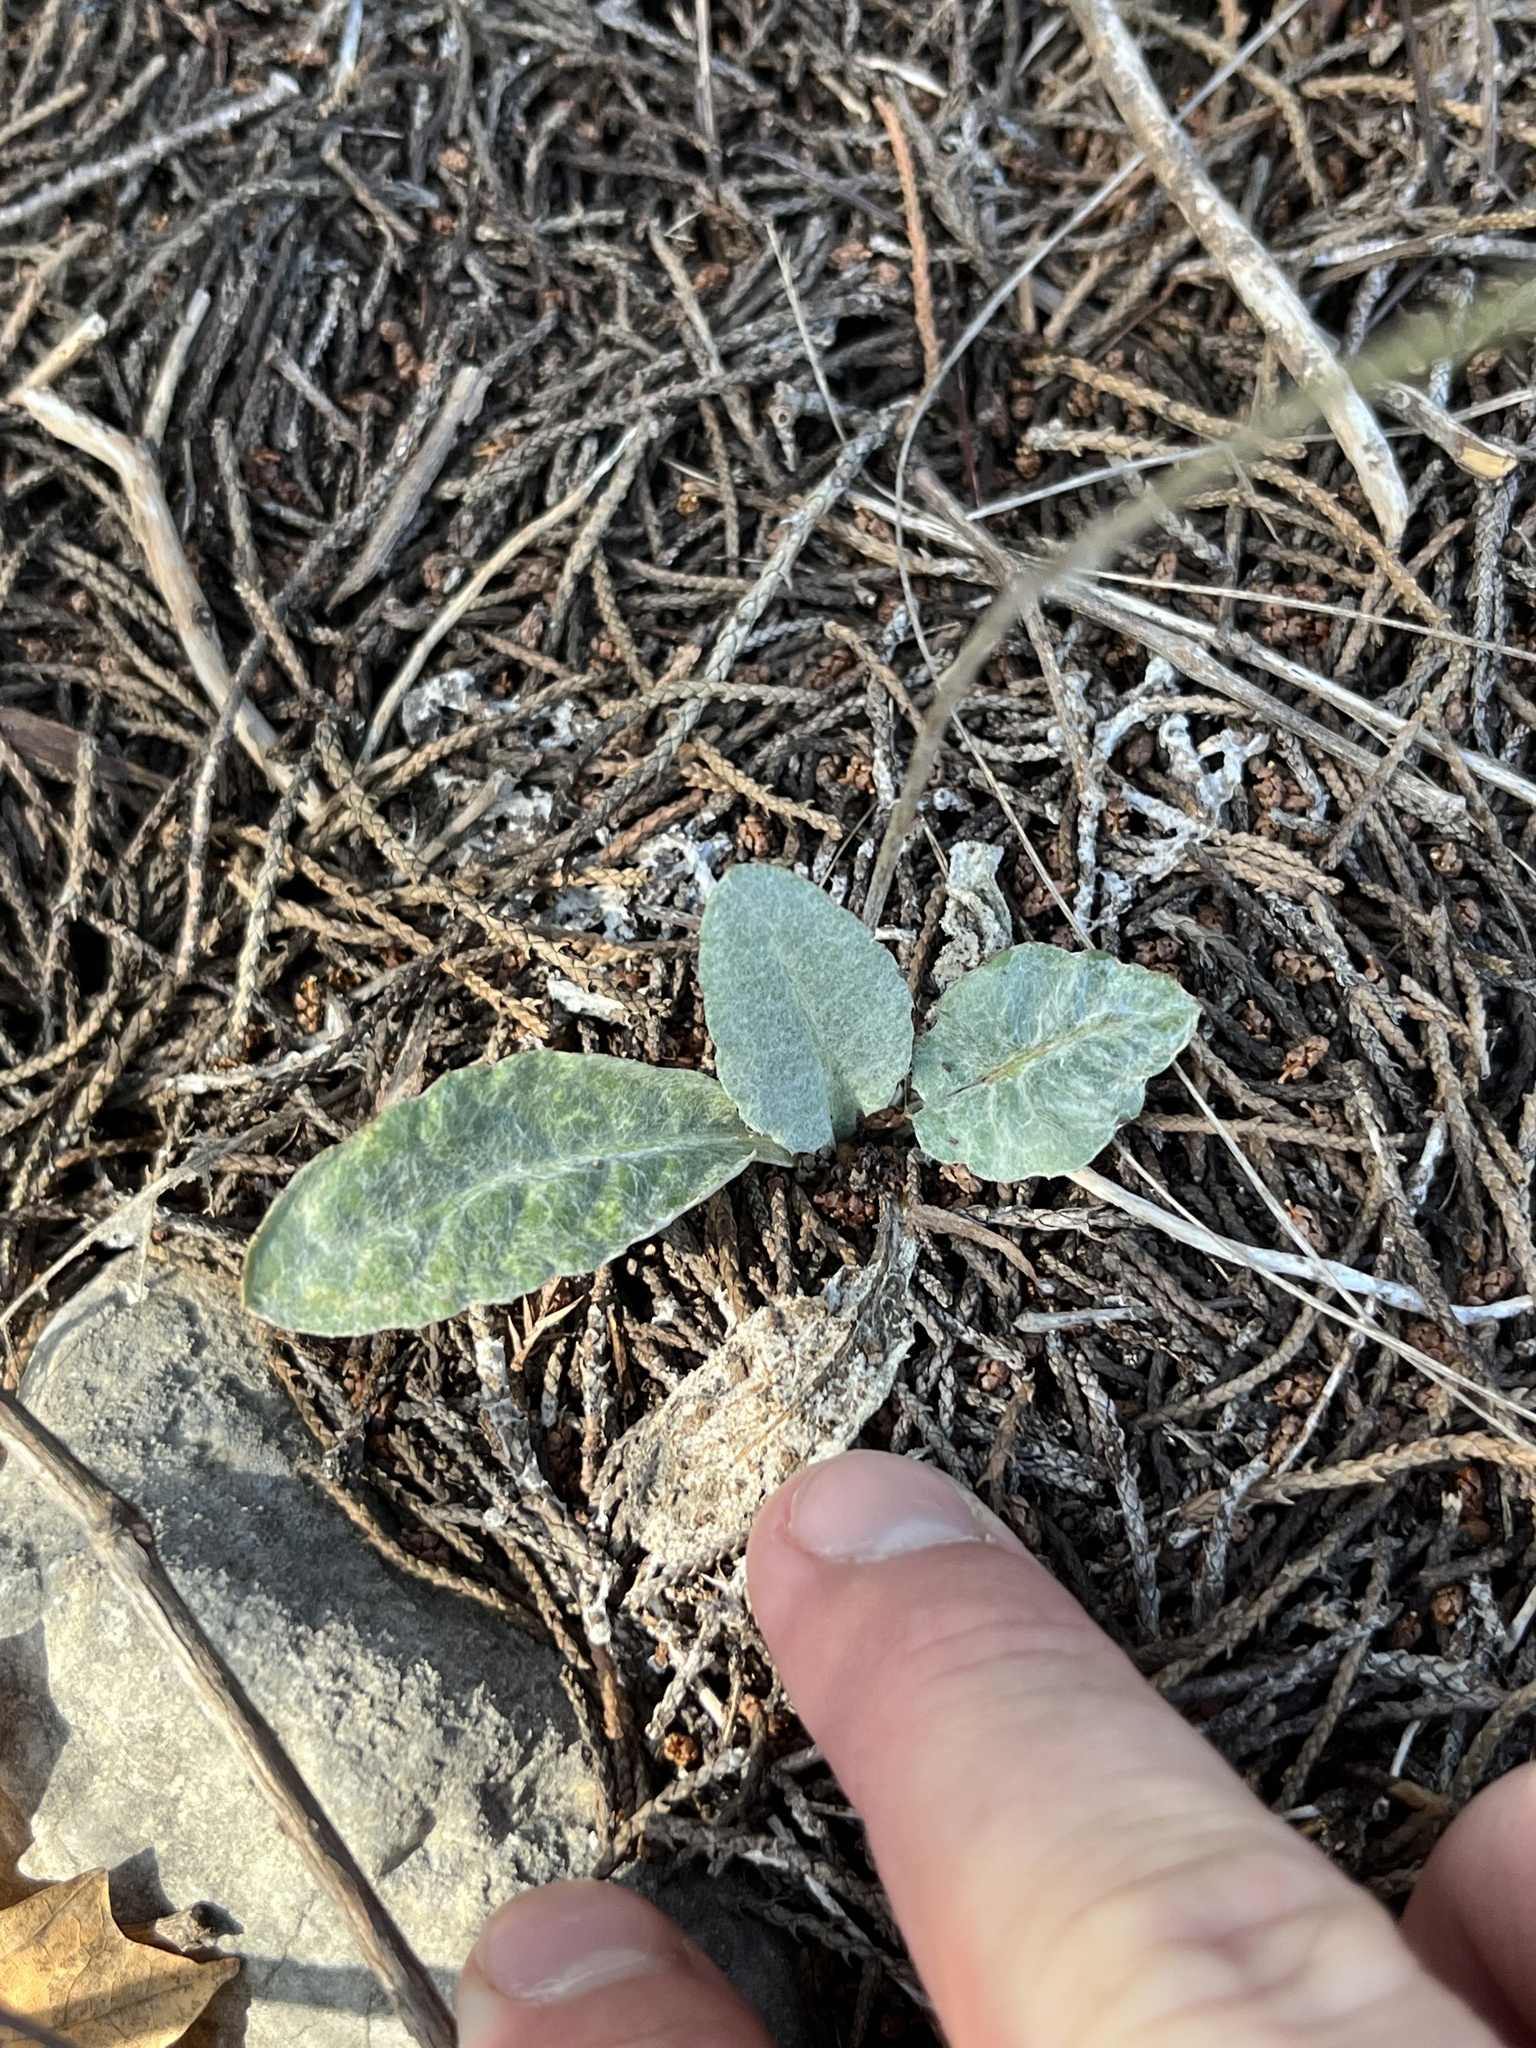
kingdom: Plantae
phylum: Tracheophyta
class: Magnoliopsida
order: Asterales
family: Asteraceae
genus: Chaptalia
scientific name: Chaptalia texana
